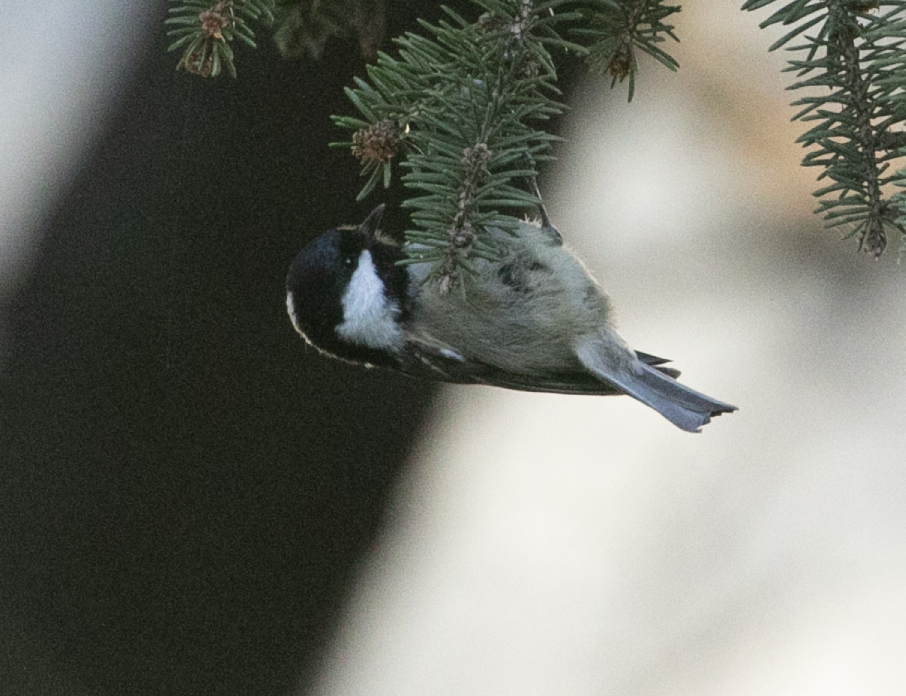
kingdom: Animalia
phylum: Chordata
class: Aves
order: Passeriformes
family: Paridae
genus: Periparus
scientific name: Periparus ater
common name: Coal tit
